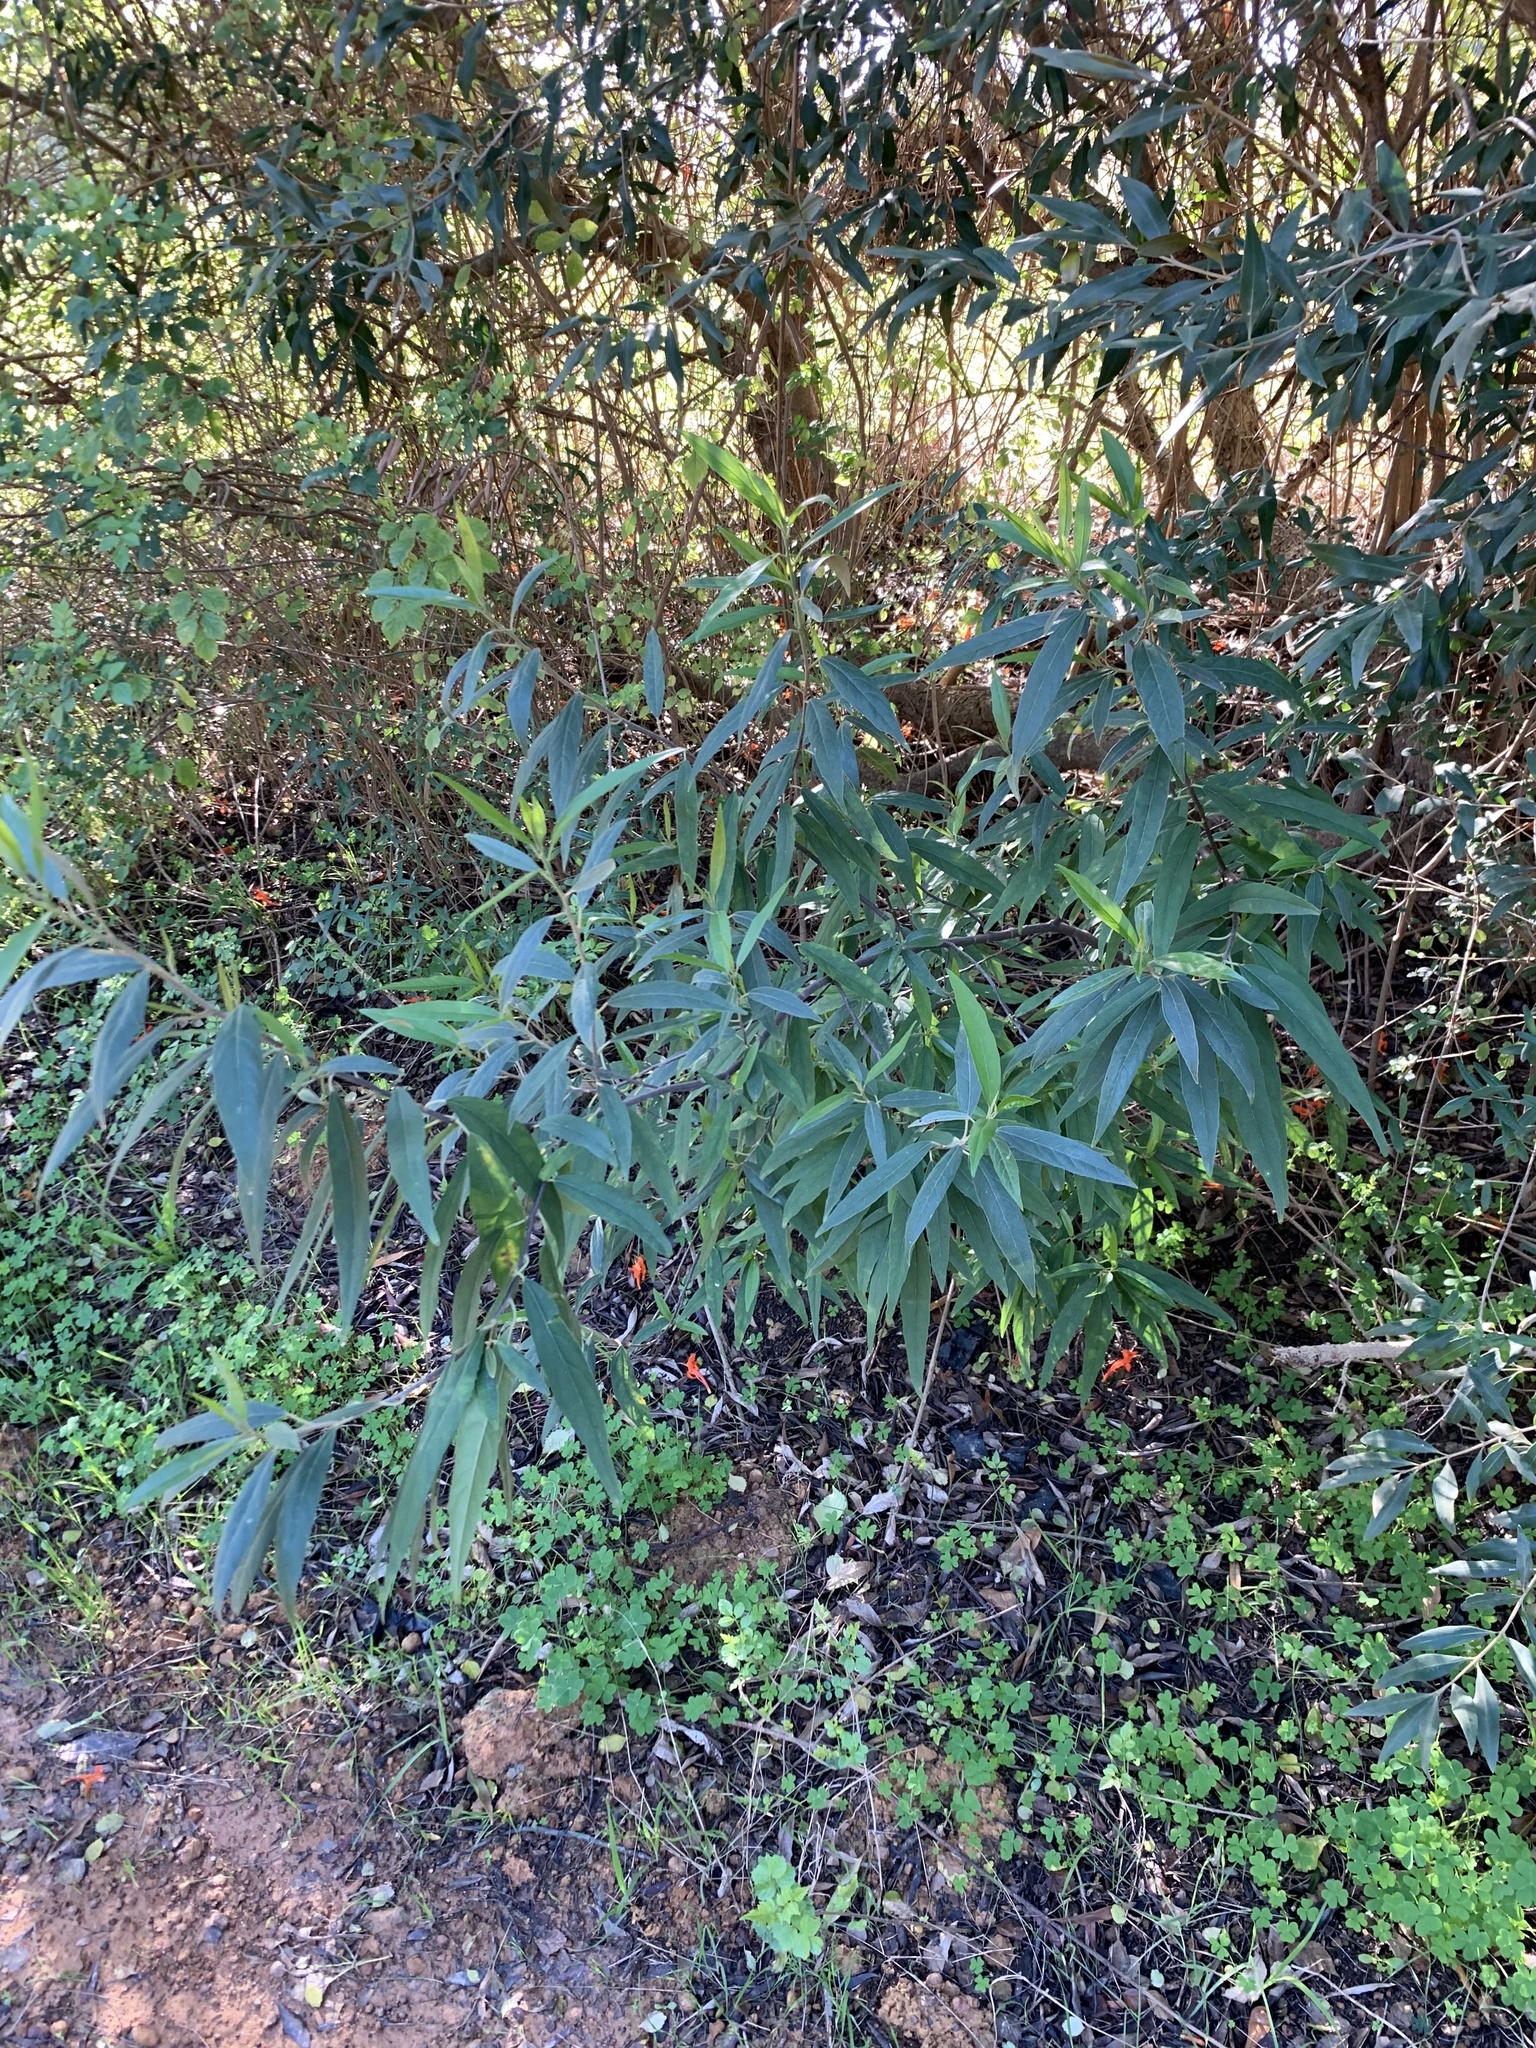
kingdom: Plantae
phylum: Tracheophyta
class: Magnoliopsida
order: Malpighiales
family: Achariaceae
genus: Kiggelaria
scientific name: Kiggelaria africana
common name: Wild peach
